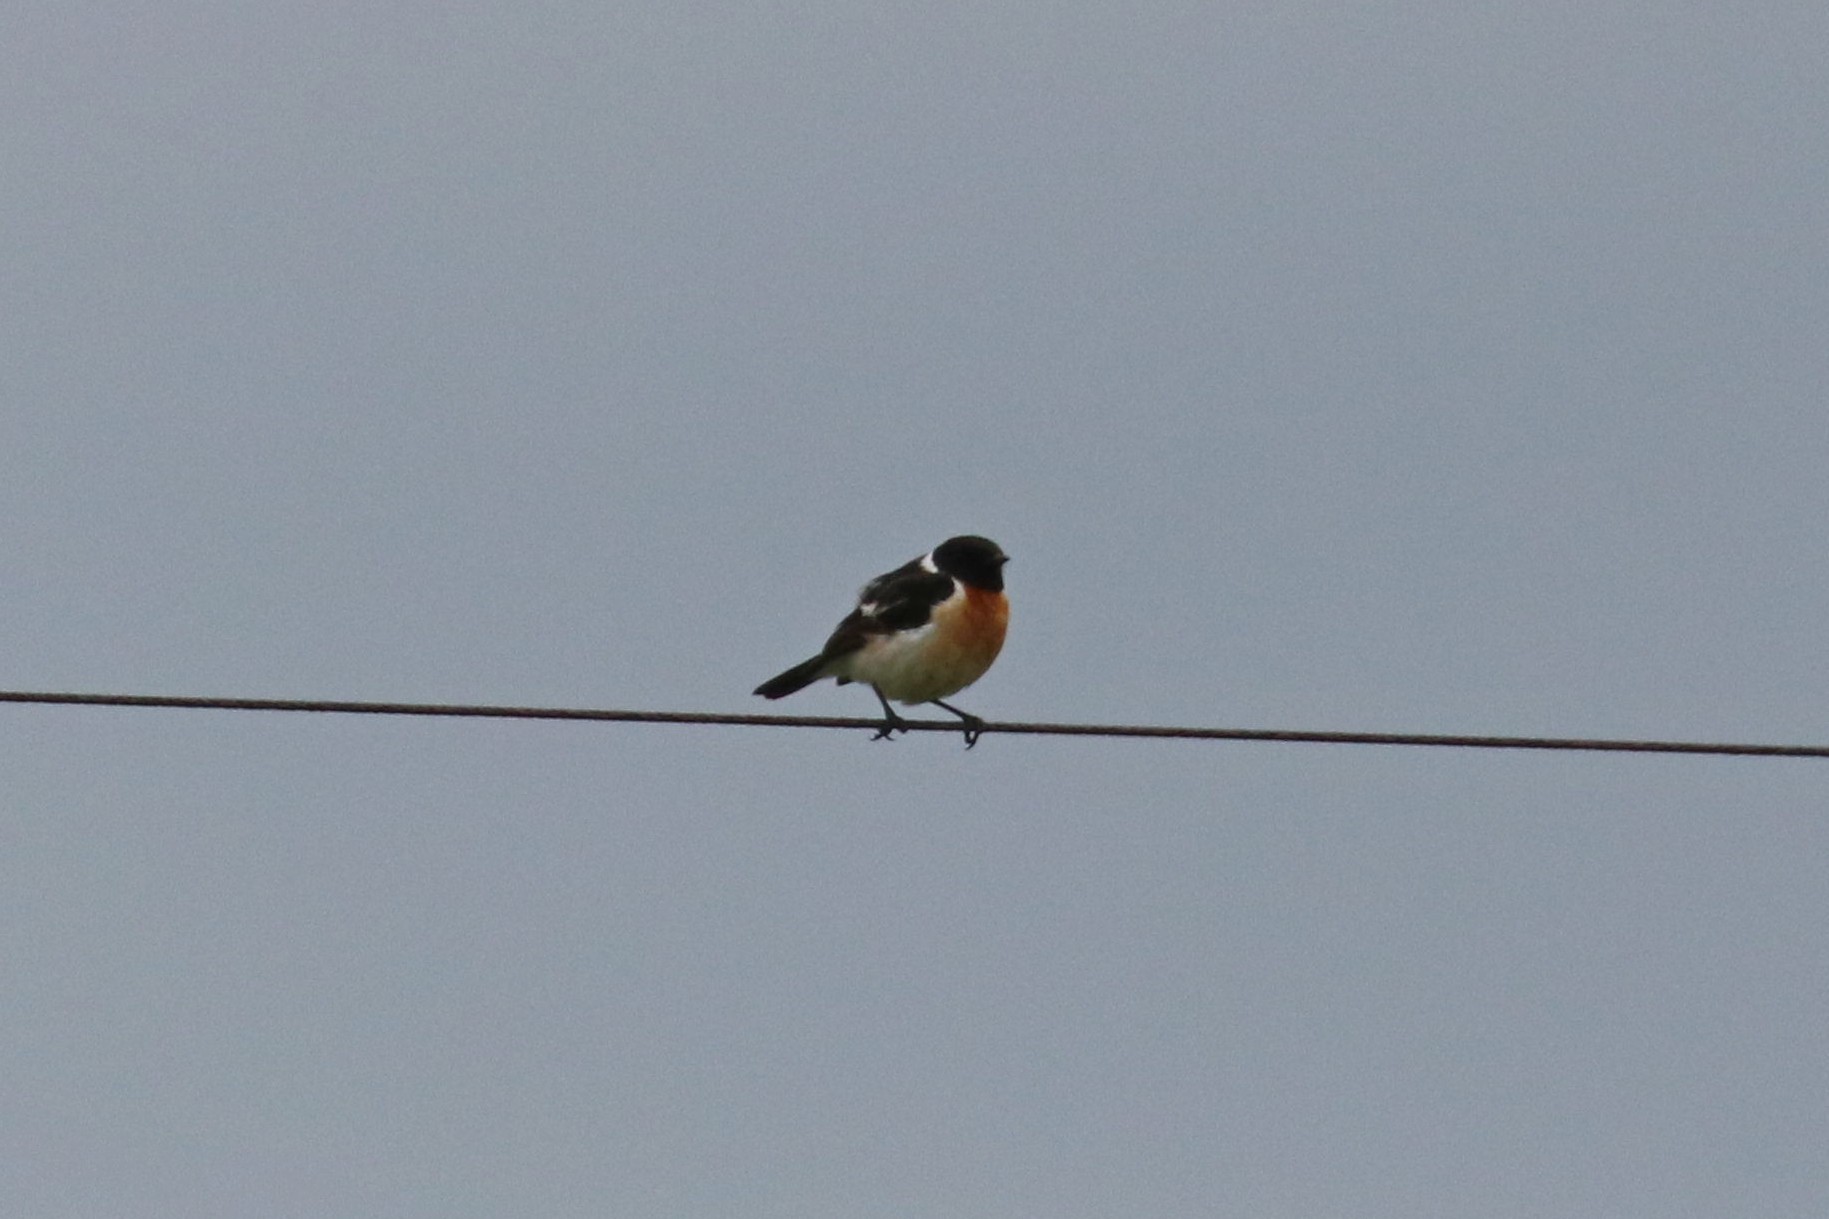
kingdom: Animalia
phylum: Chordata
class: Aves
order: Passeriformes
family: Muscicapidae
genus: Saxicola
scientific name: Saxicola maurus
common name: Siberian stonechat
